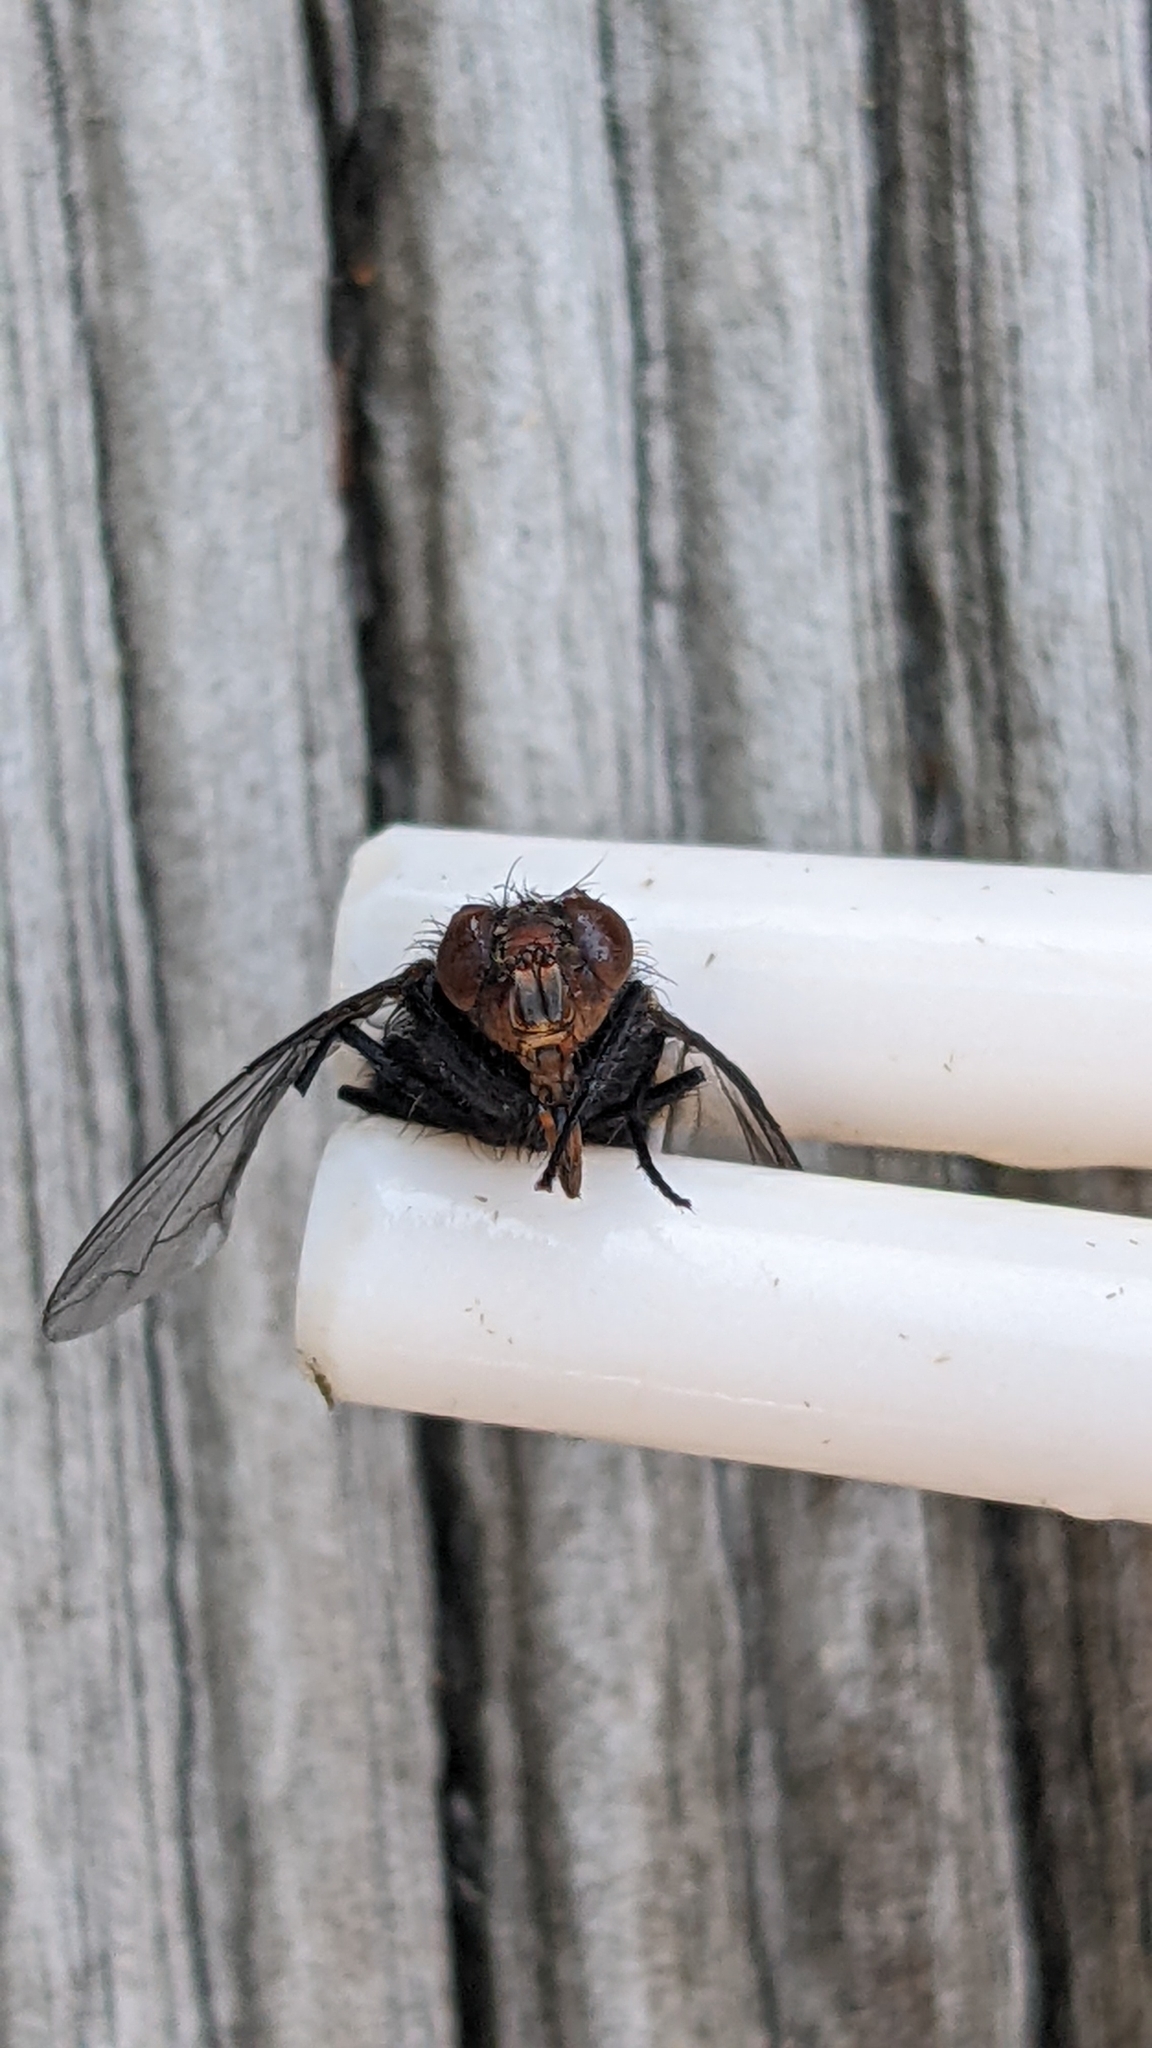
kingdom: Animalia
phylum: Arthropoda
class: Insecta
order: Diptera
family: Calliphoridae
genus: Calliphora
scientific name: Calliphora vicina
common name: Common blow flie
